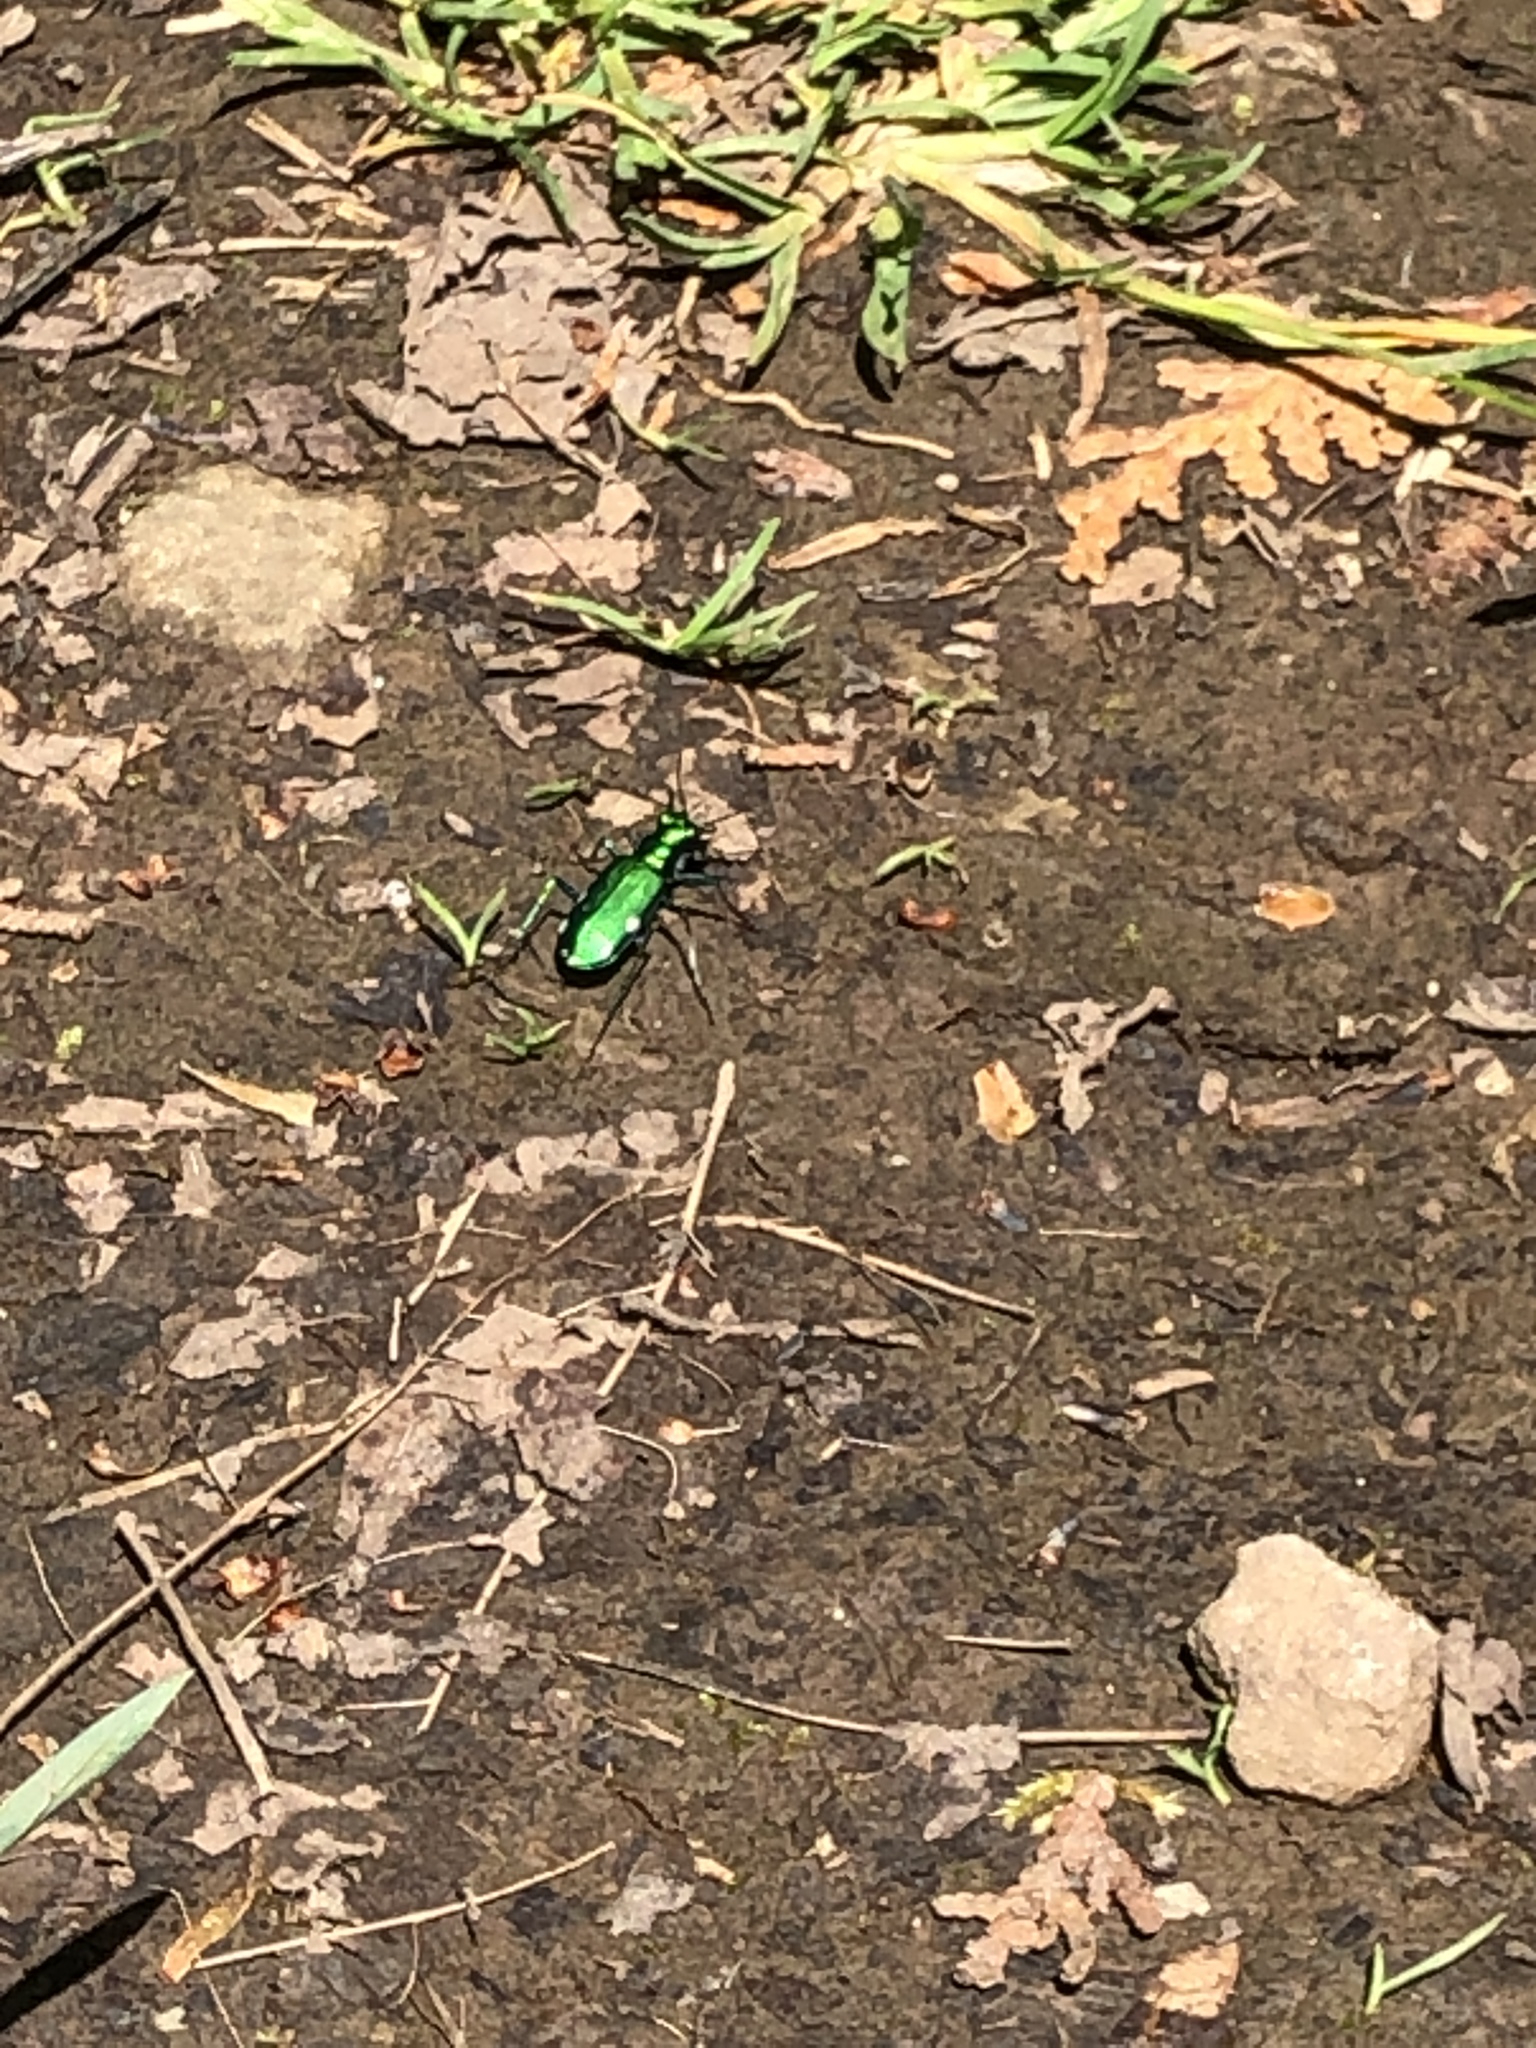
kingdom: Animalia
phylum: Arthropoda
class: Insecta
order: Coleoptera
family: Carabidae
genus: Cicindela
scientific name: Cicindela sexguttata
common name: Six-spotted tiger beetle
